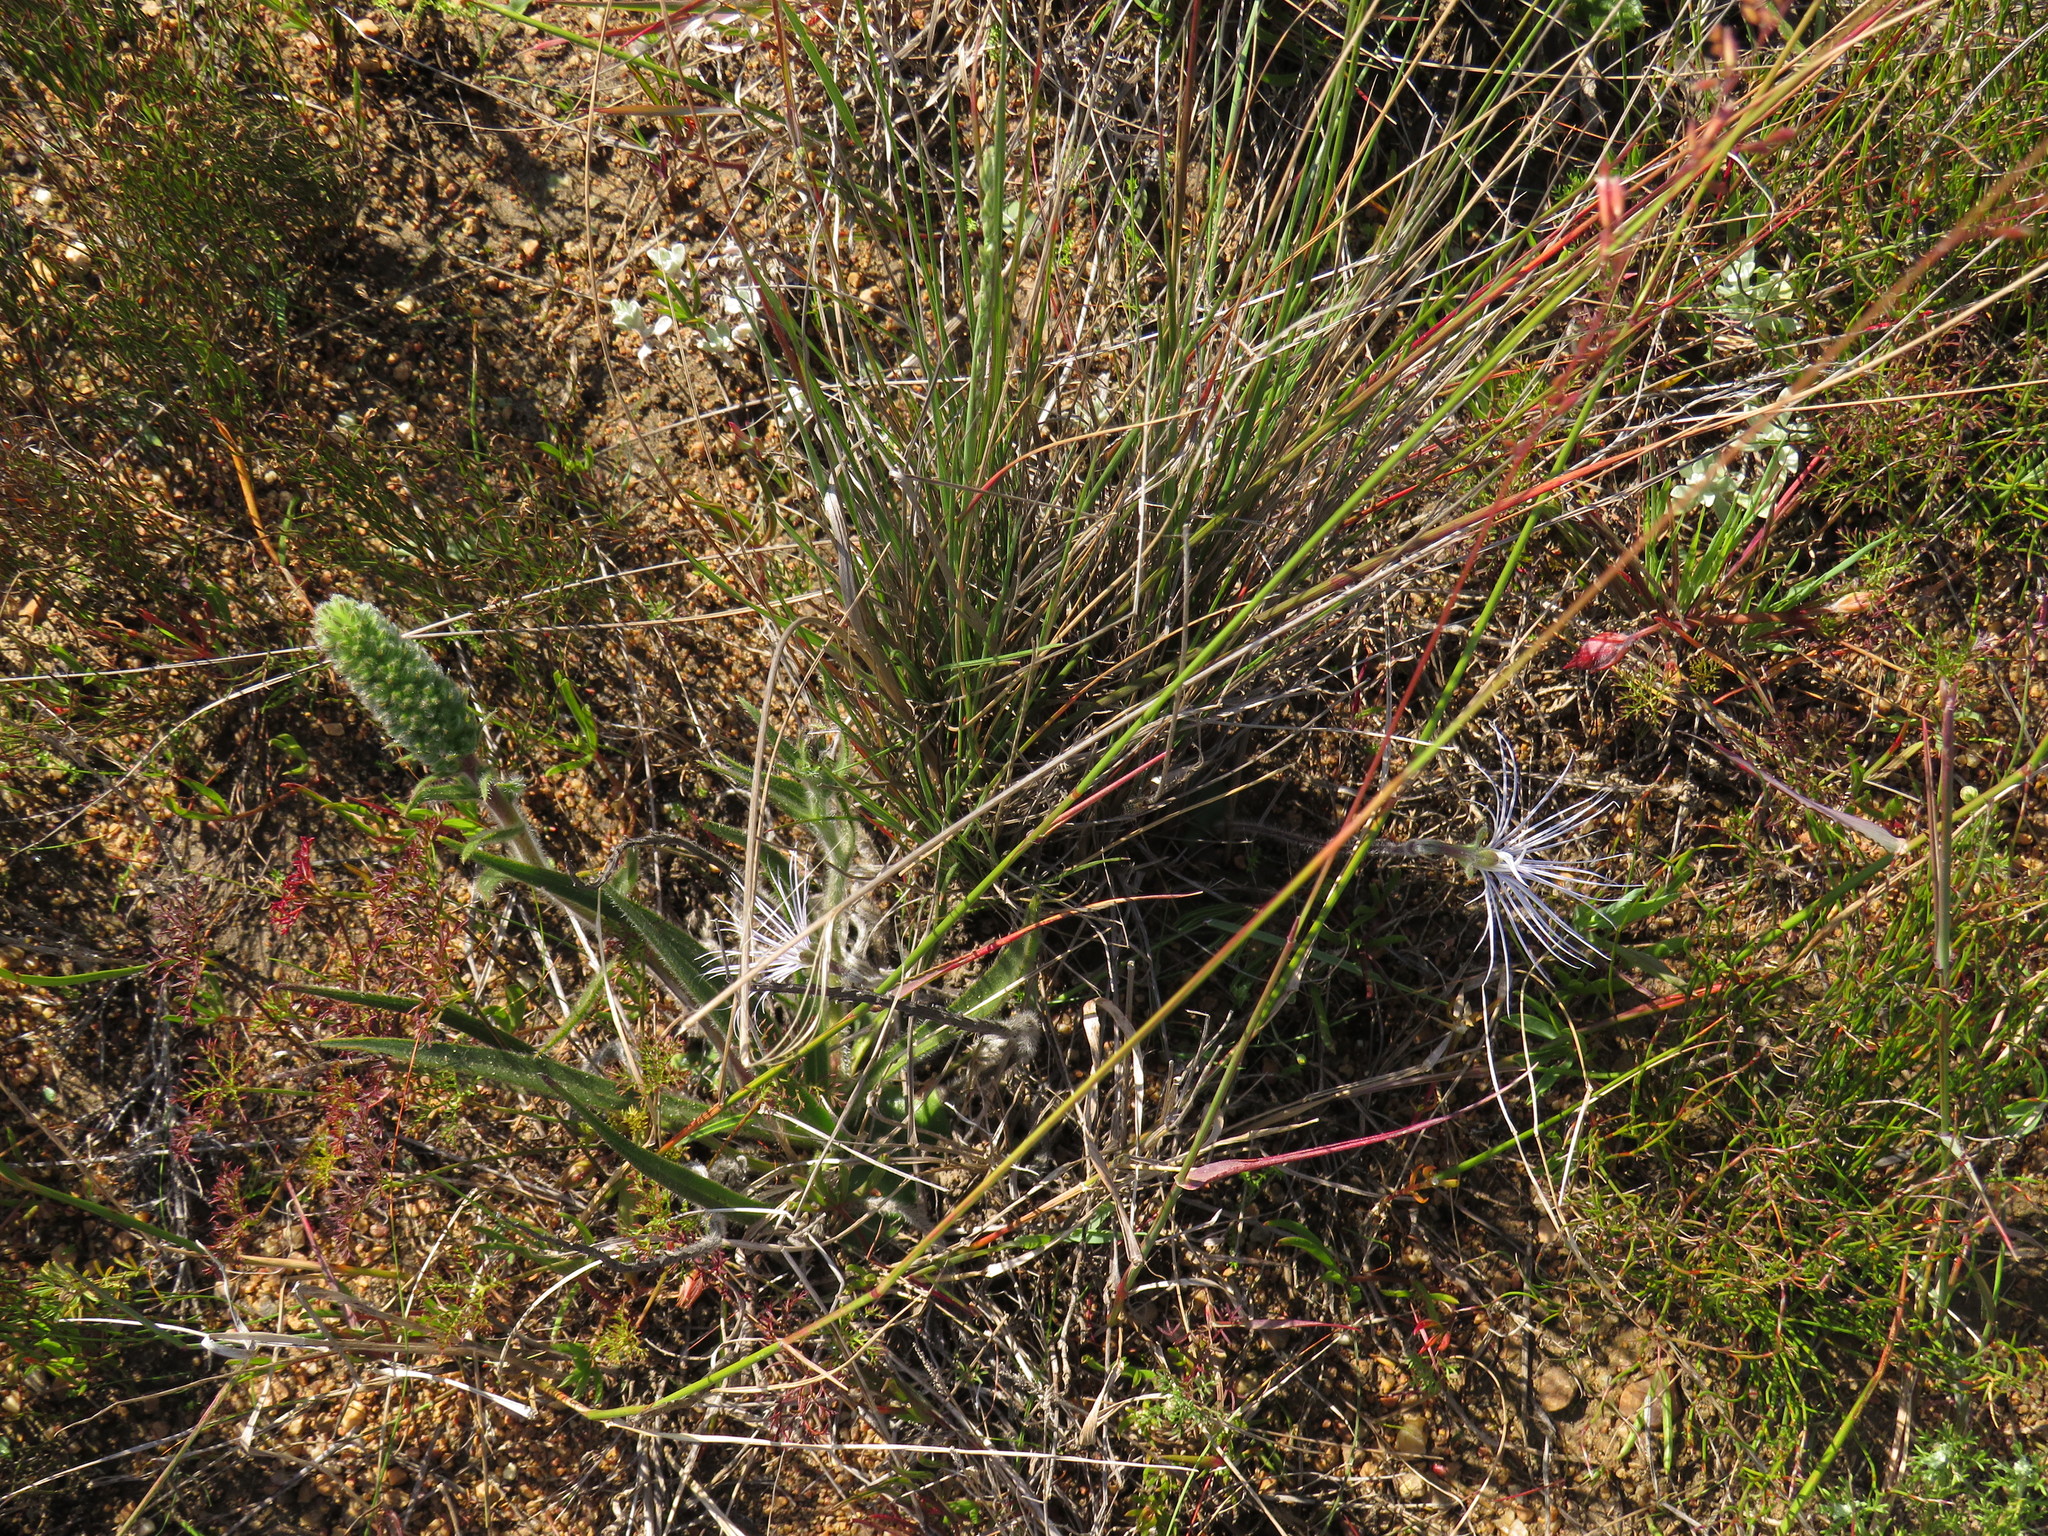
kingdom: Plantae
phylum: Tracheophyta
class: Magnoliopsida
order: Boraginales
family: Boraginaceae
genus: Lobostemon
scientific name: Lobostemon splendens
